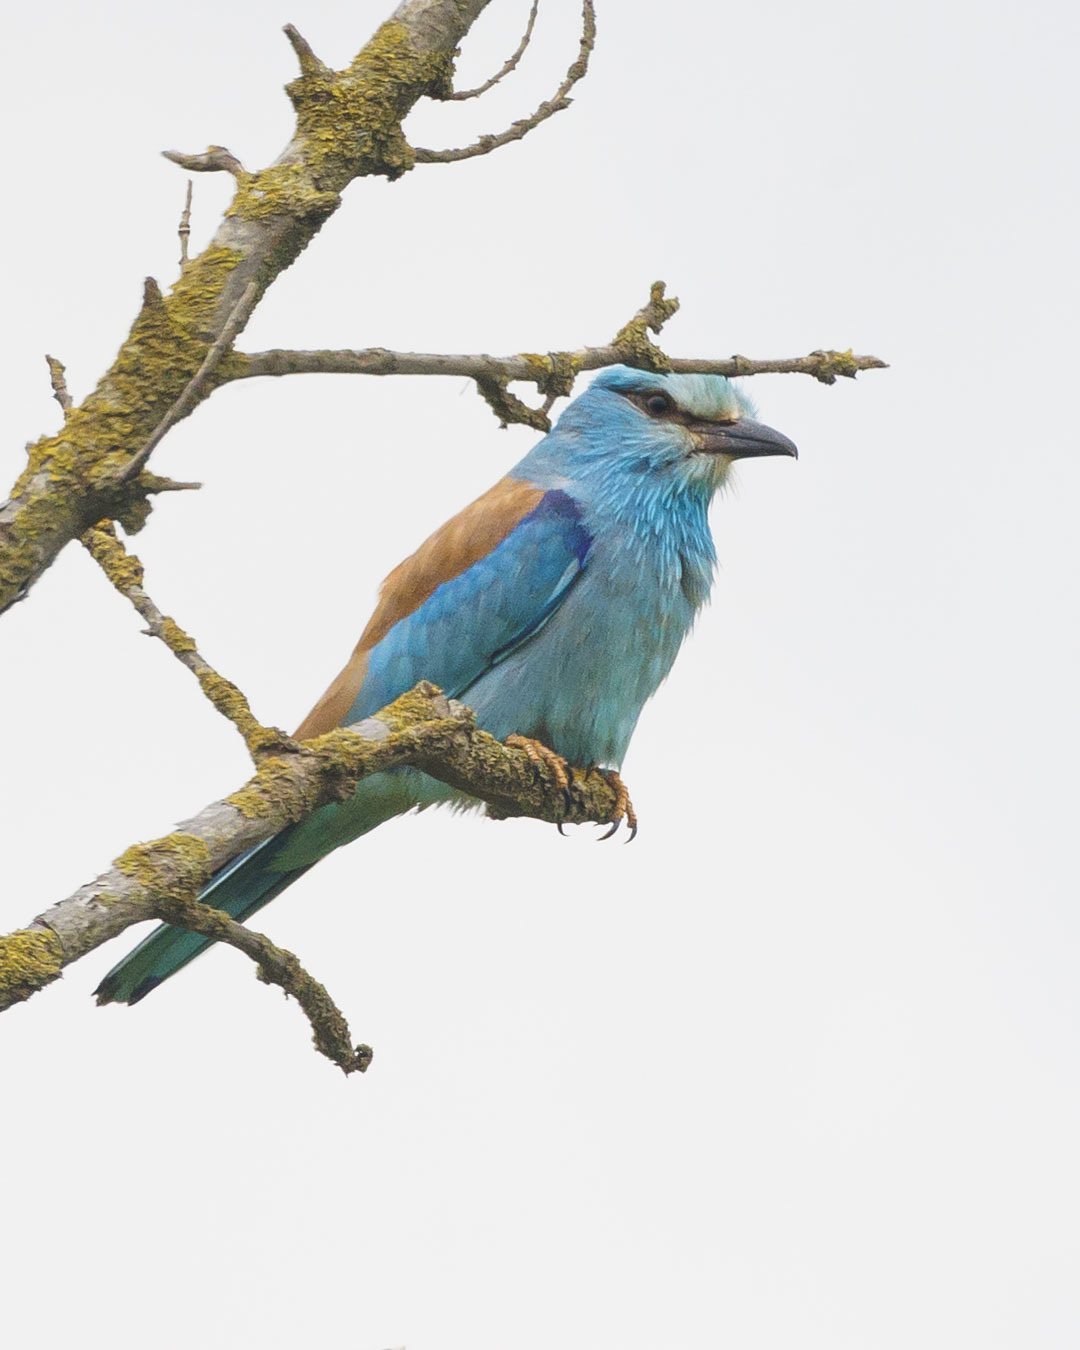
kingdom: Animalia
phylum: Chordata
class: Aves
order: Coraciiformes
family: Coraciidae
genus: Coracias
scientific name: Coracias garrulus
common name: European roller
